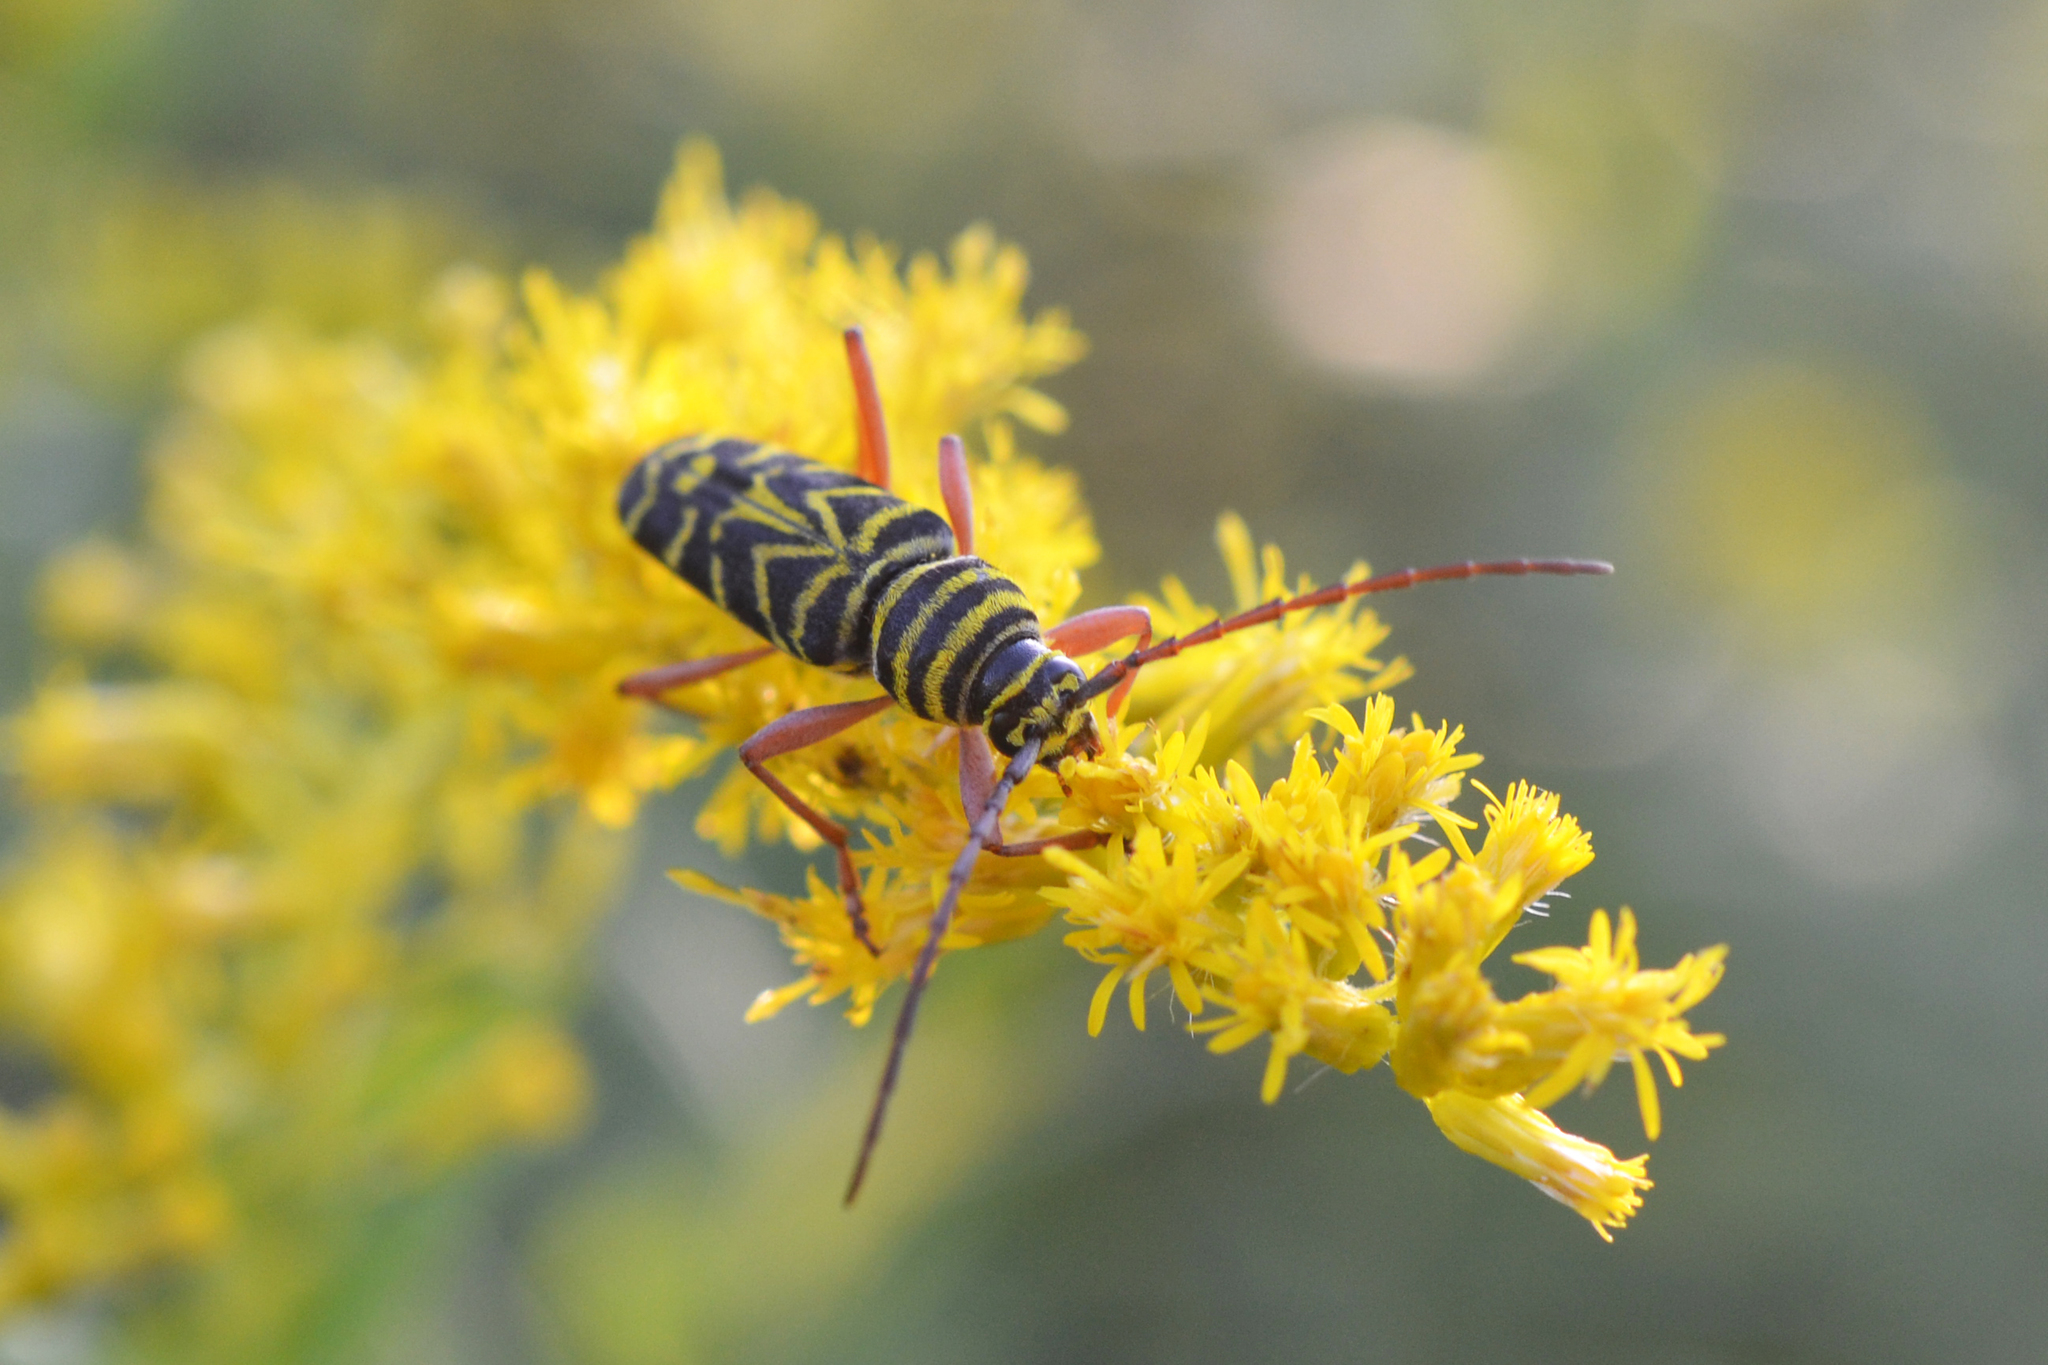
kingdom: Animalia
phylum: Arthropoda
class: Insecta
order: Coleoptera
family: Cerambycidae
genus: Megacyllene
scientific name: Megacyllene robiniae
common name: Locust borer
